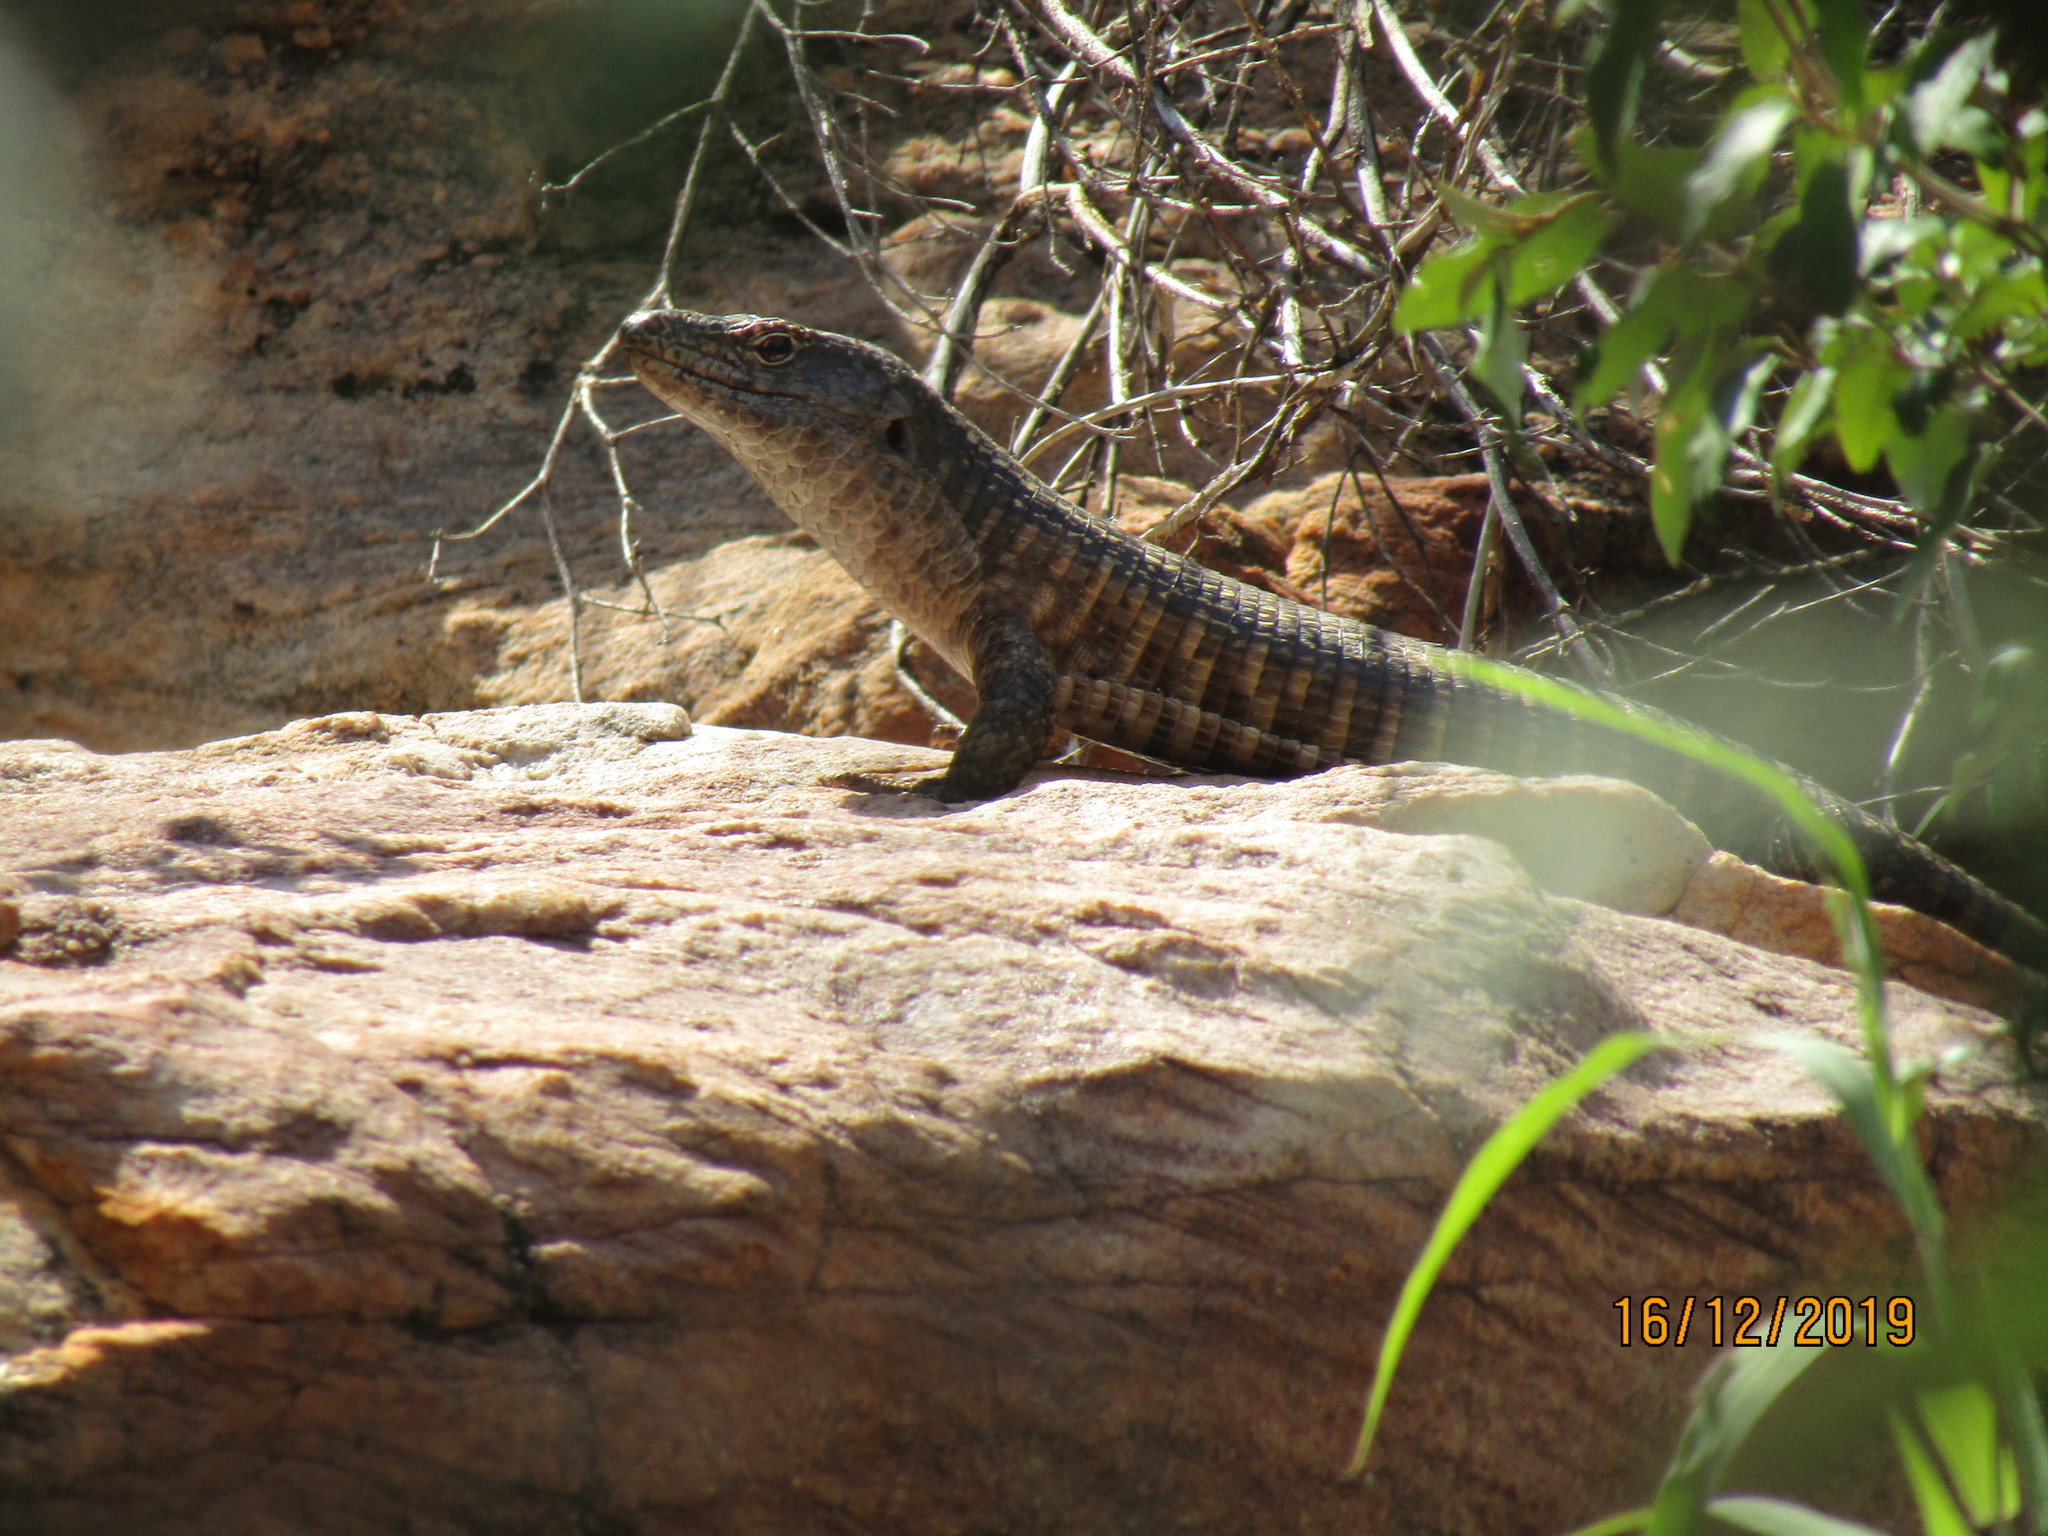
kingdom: Animalia
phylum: Chordata
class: Squamata
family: Gerrhosauridae
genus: Matobosaurus
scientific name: Matobosaurus validus
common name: Common giant plated lizard
